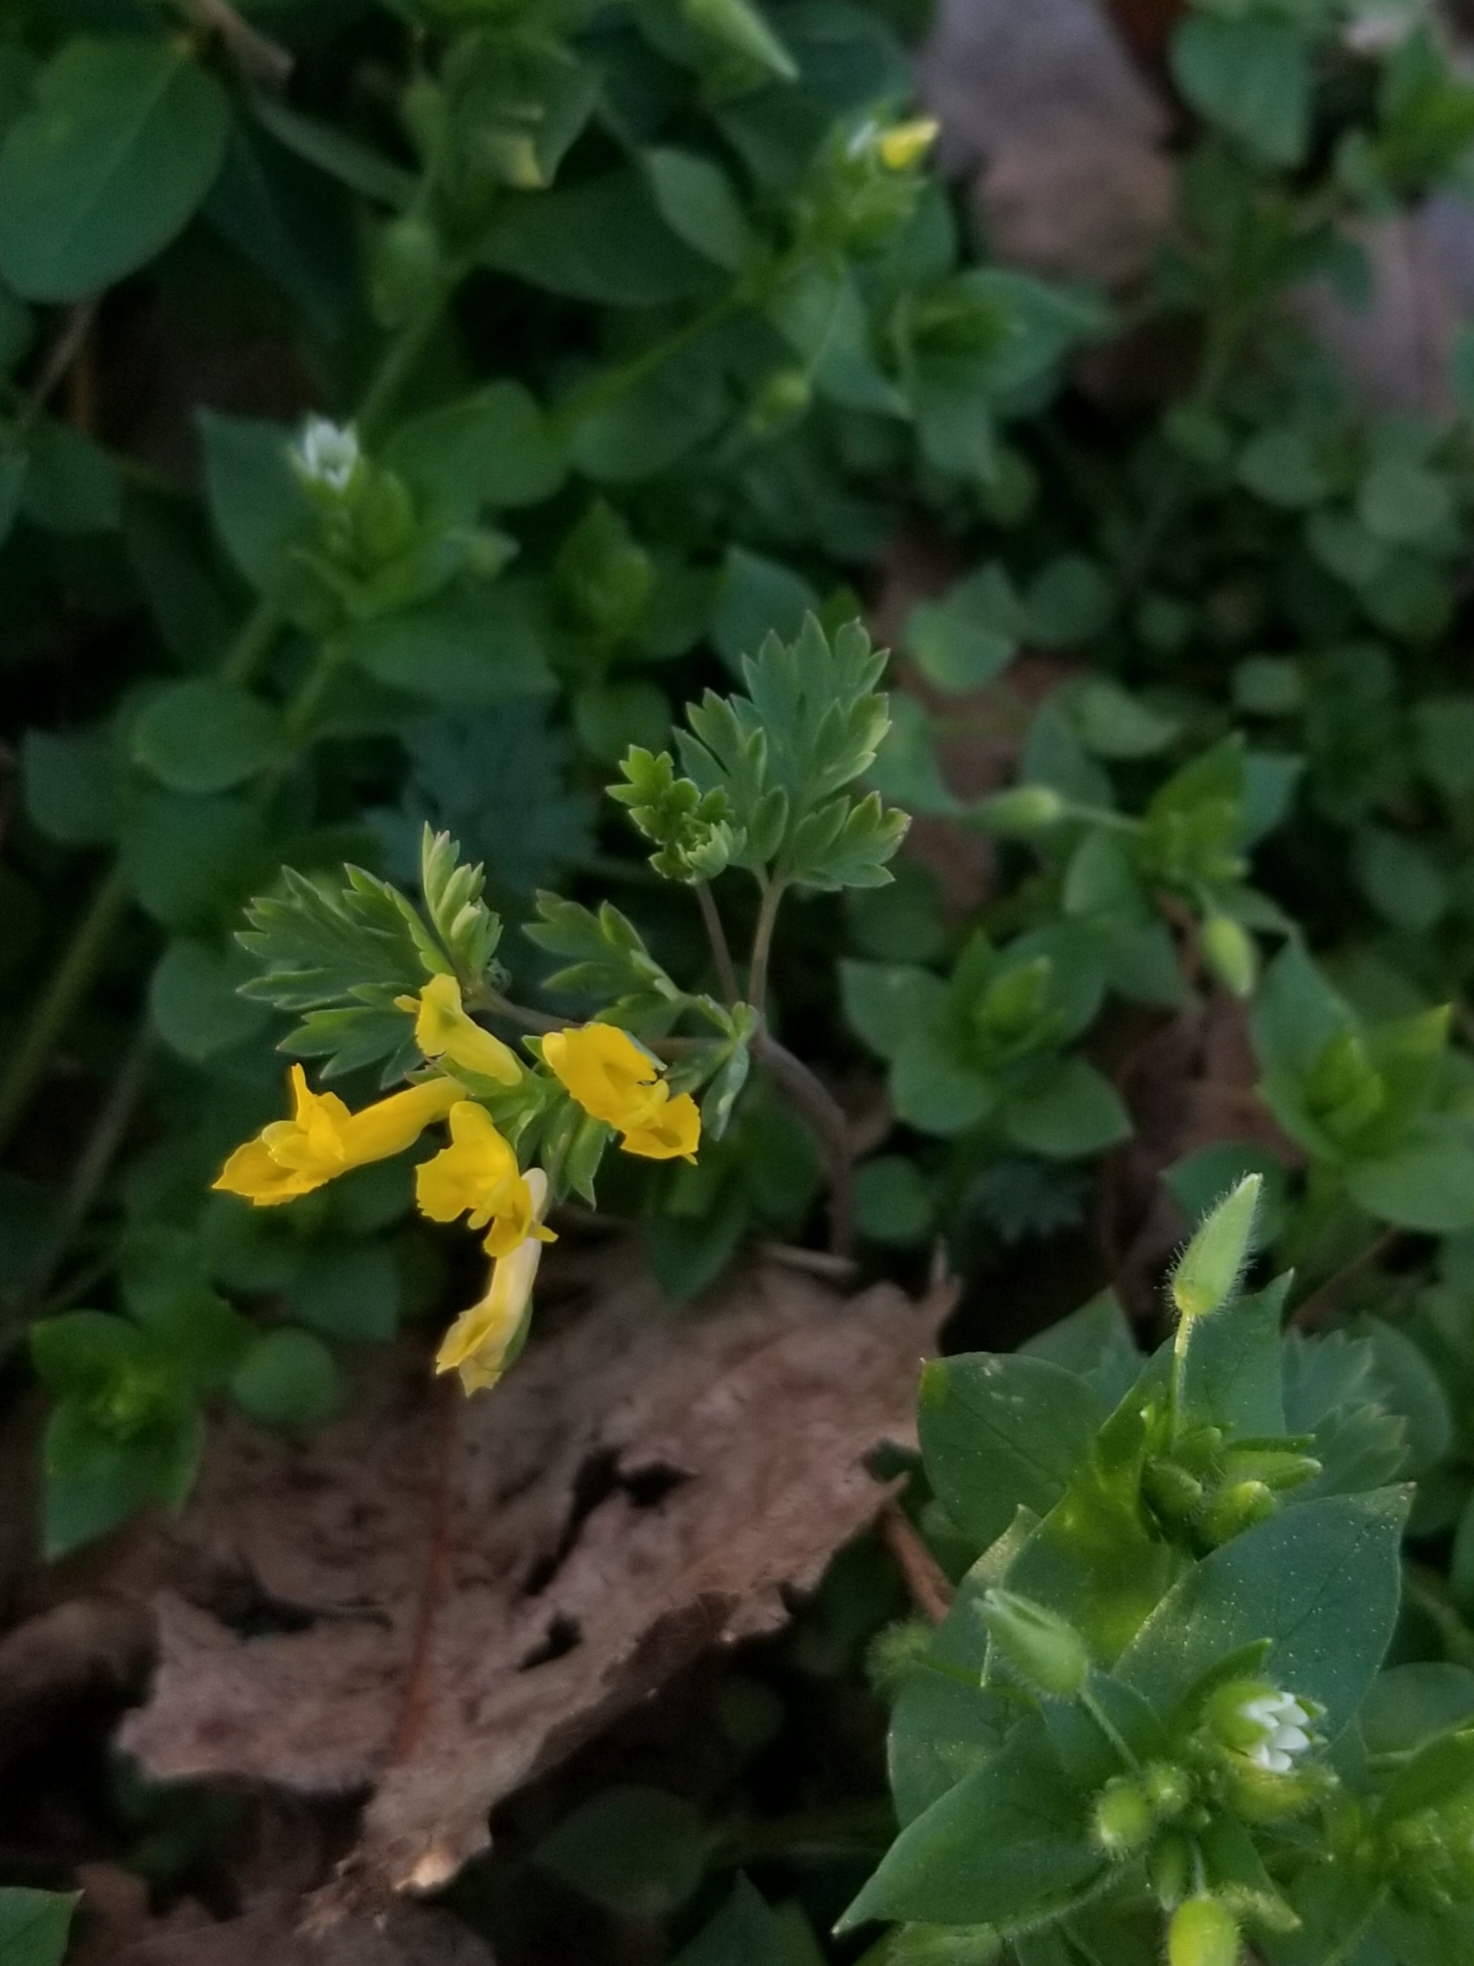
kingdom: Plantae
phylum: Tracheophyta
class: Magnoliopsida
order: Ranunculales
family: Papaveraceae
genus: Corydalis
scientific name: Corydalis flavula
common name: Yellow corydalis
